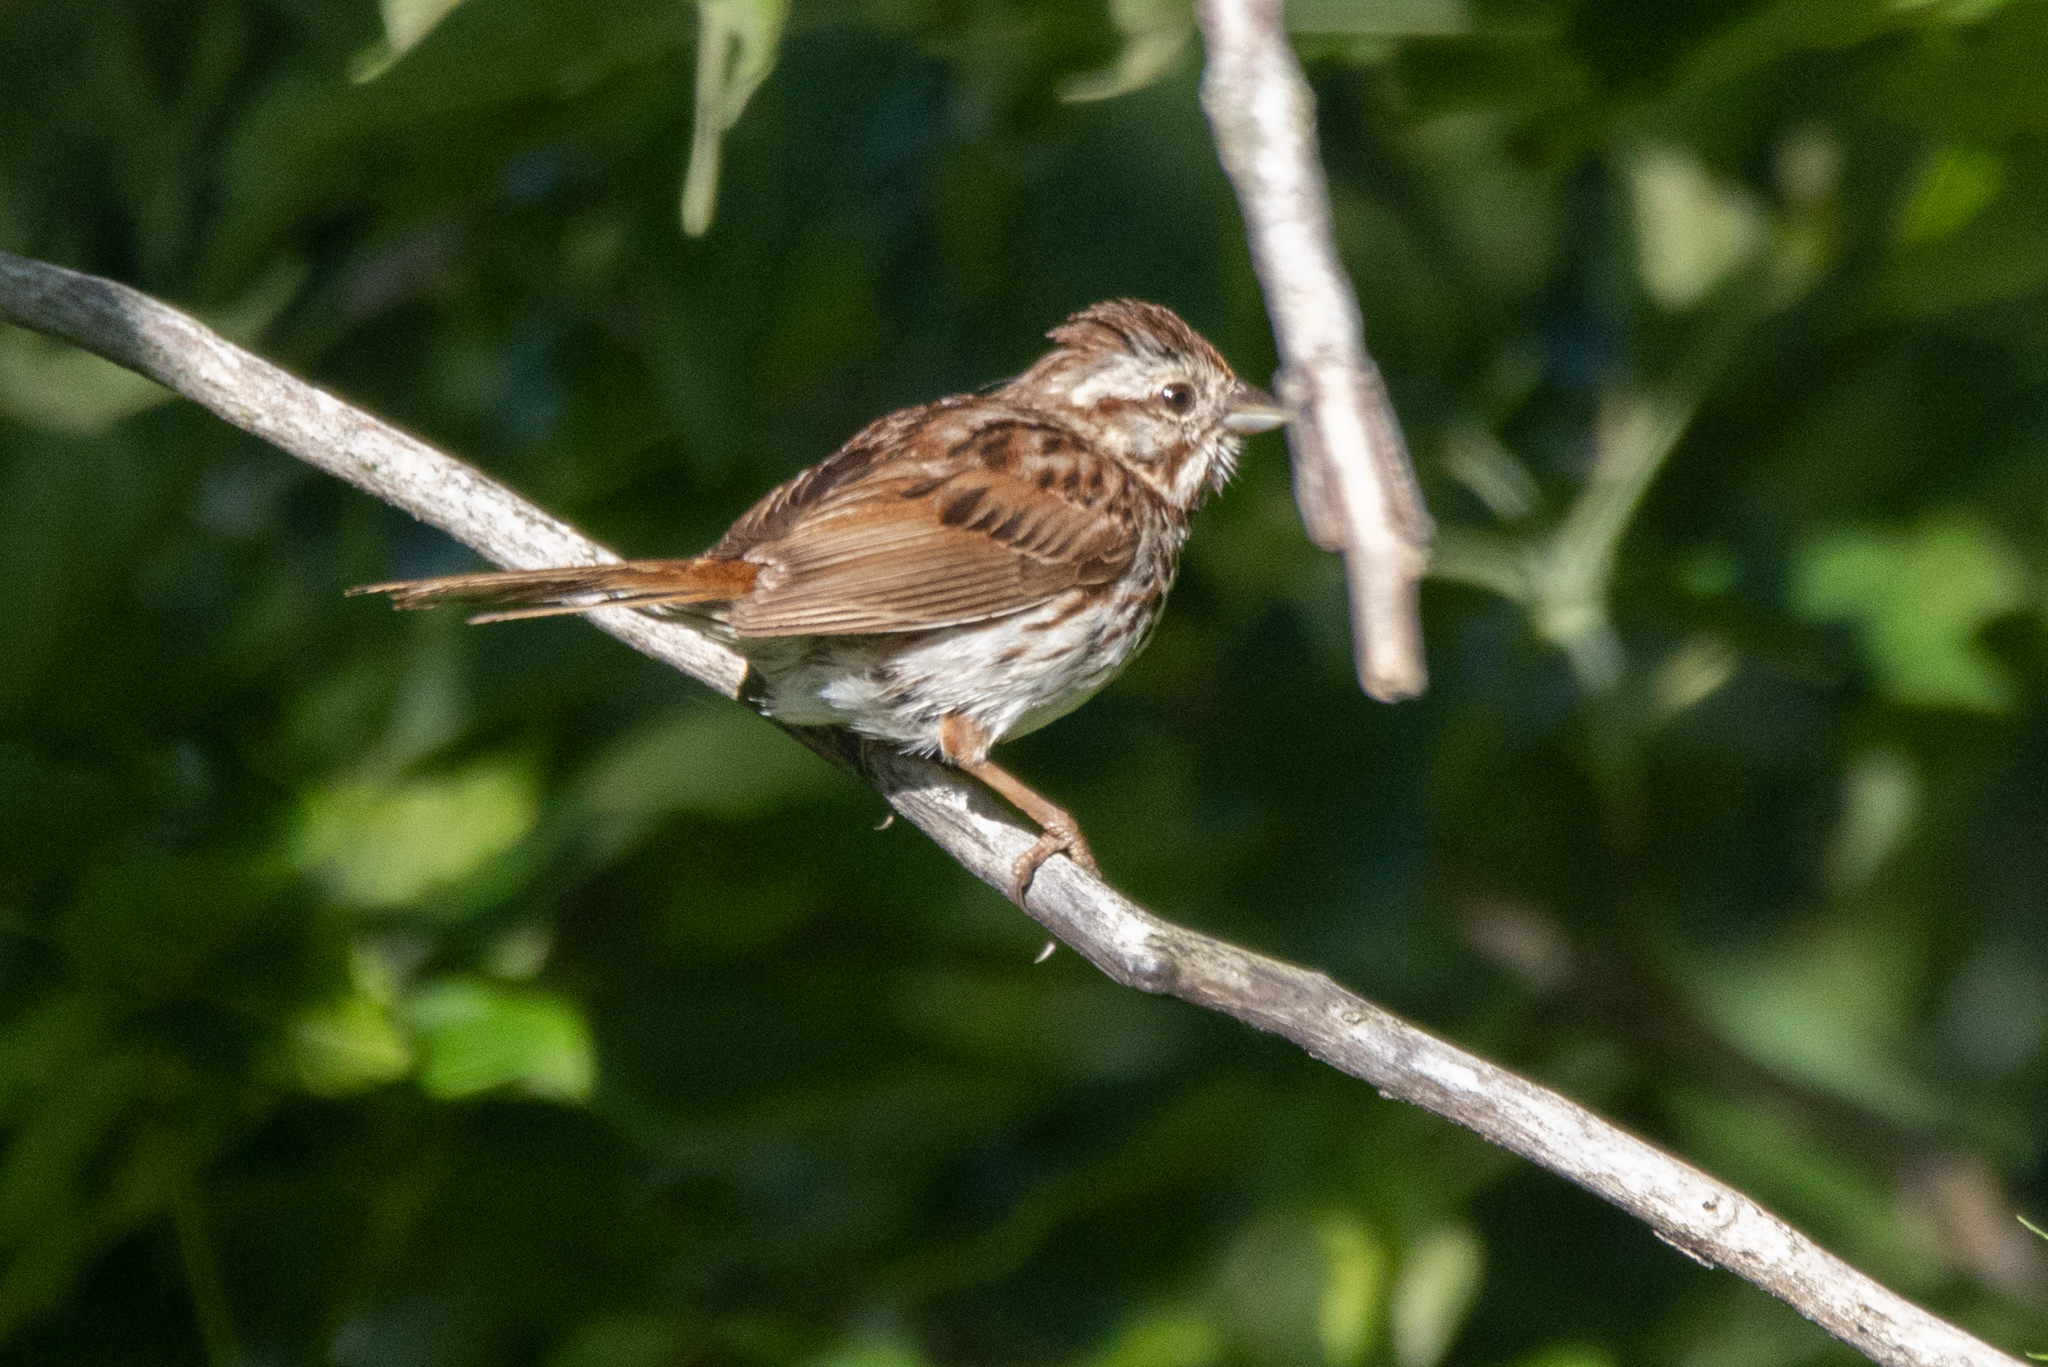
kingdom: Animalia
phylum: Chordata
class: Aves
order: Passeriformes
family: Passerellidae
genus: Melospiza
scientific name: Melospiza melodia
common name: Song sparrow
